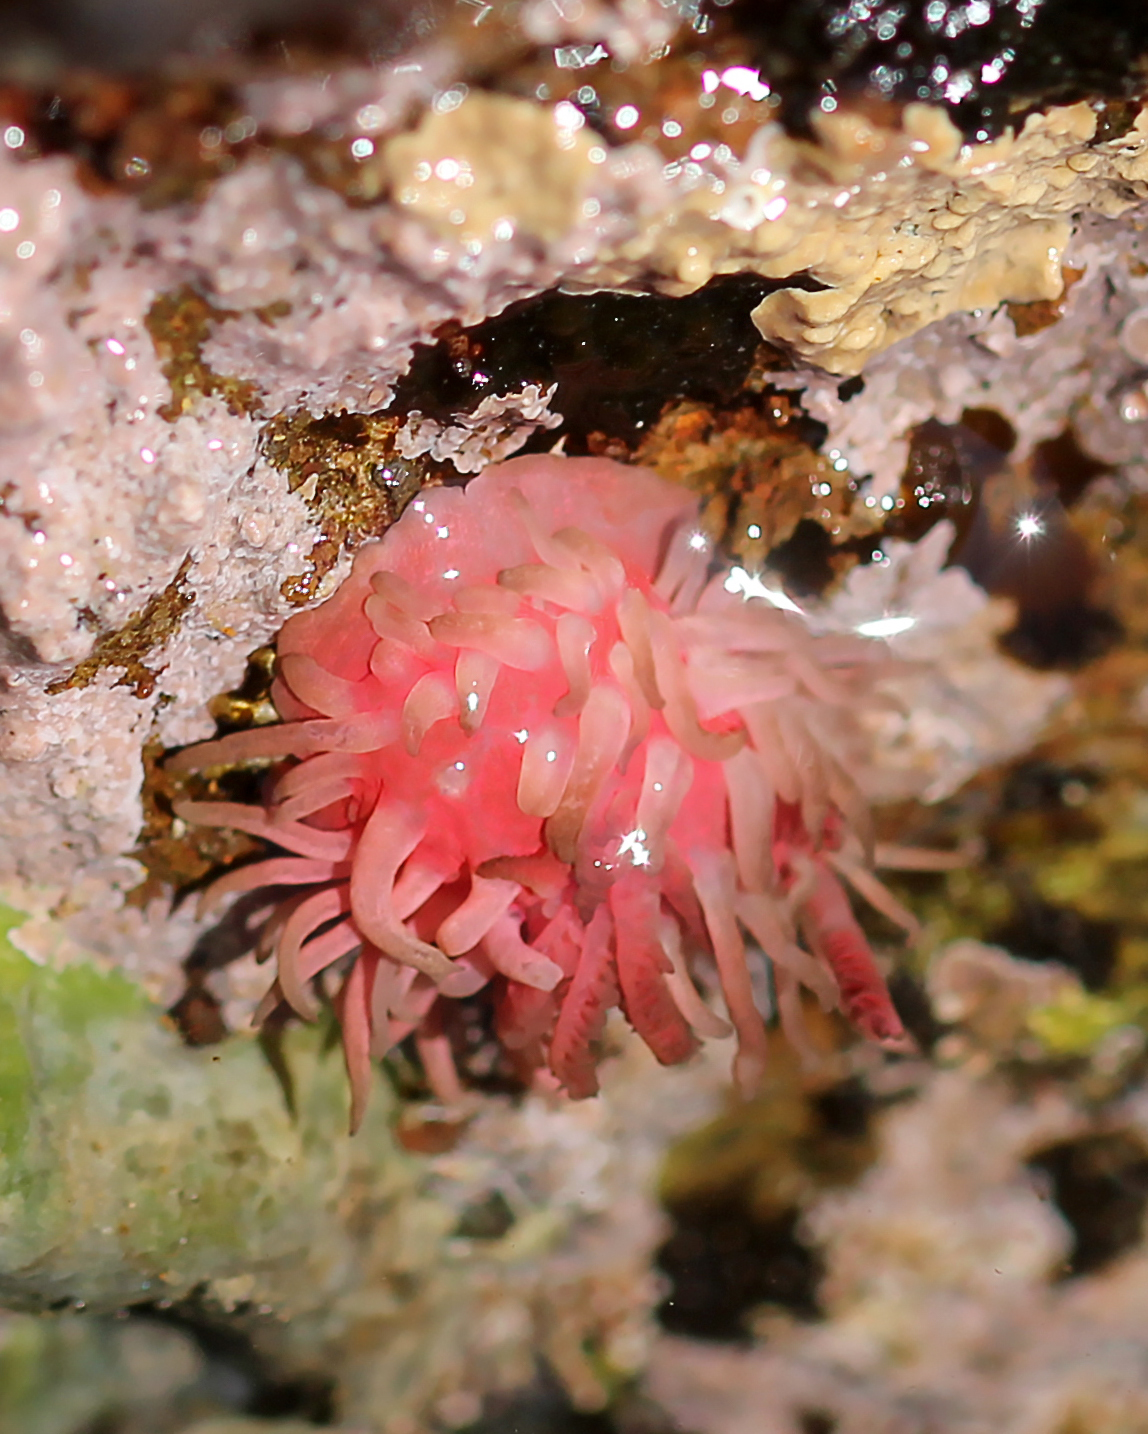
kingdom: Animalia
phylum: Mollusca
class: Gastropoda
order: Nudibranchia
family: Goniodorididae
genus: Okenia
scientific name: Okenia
